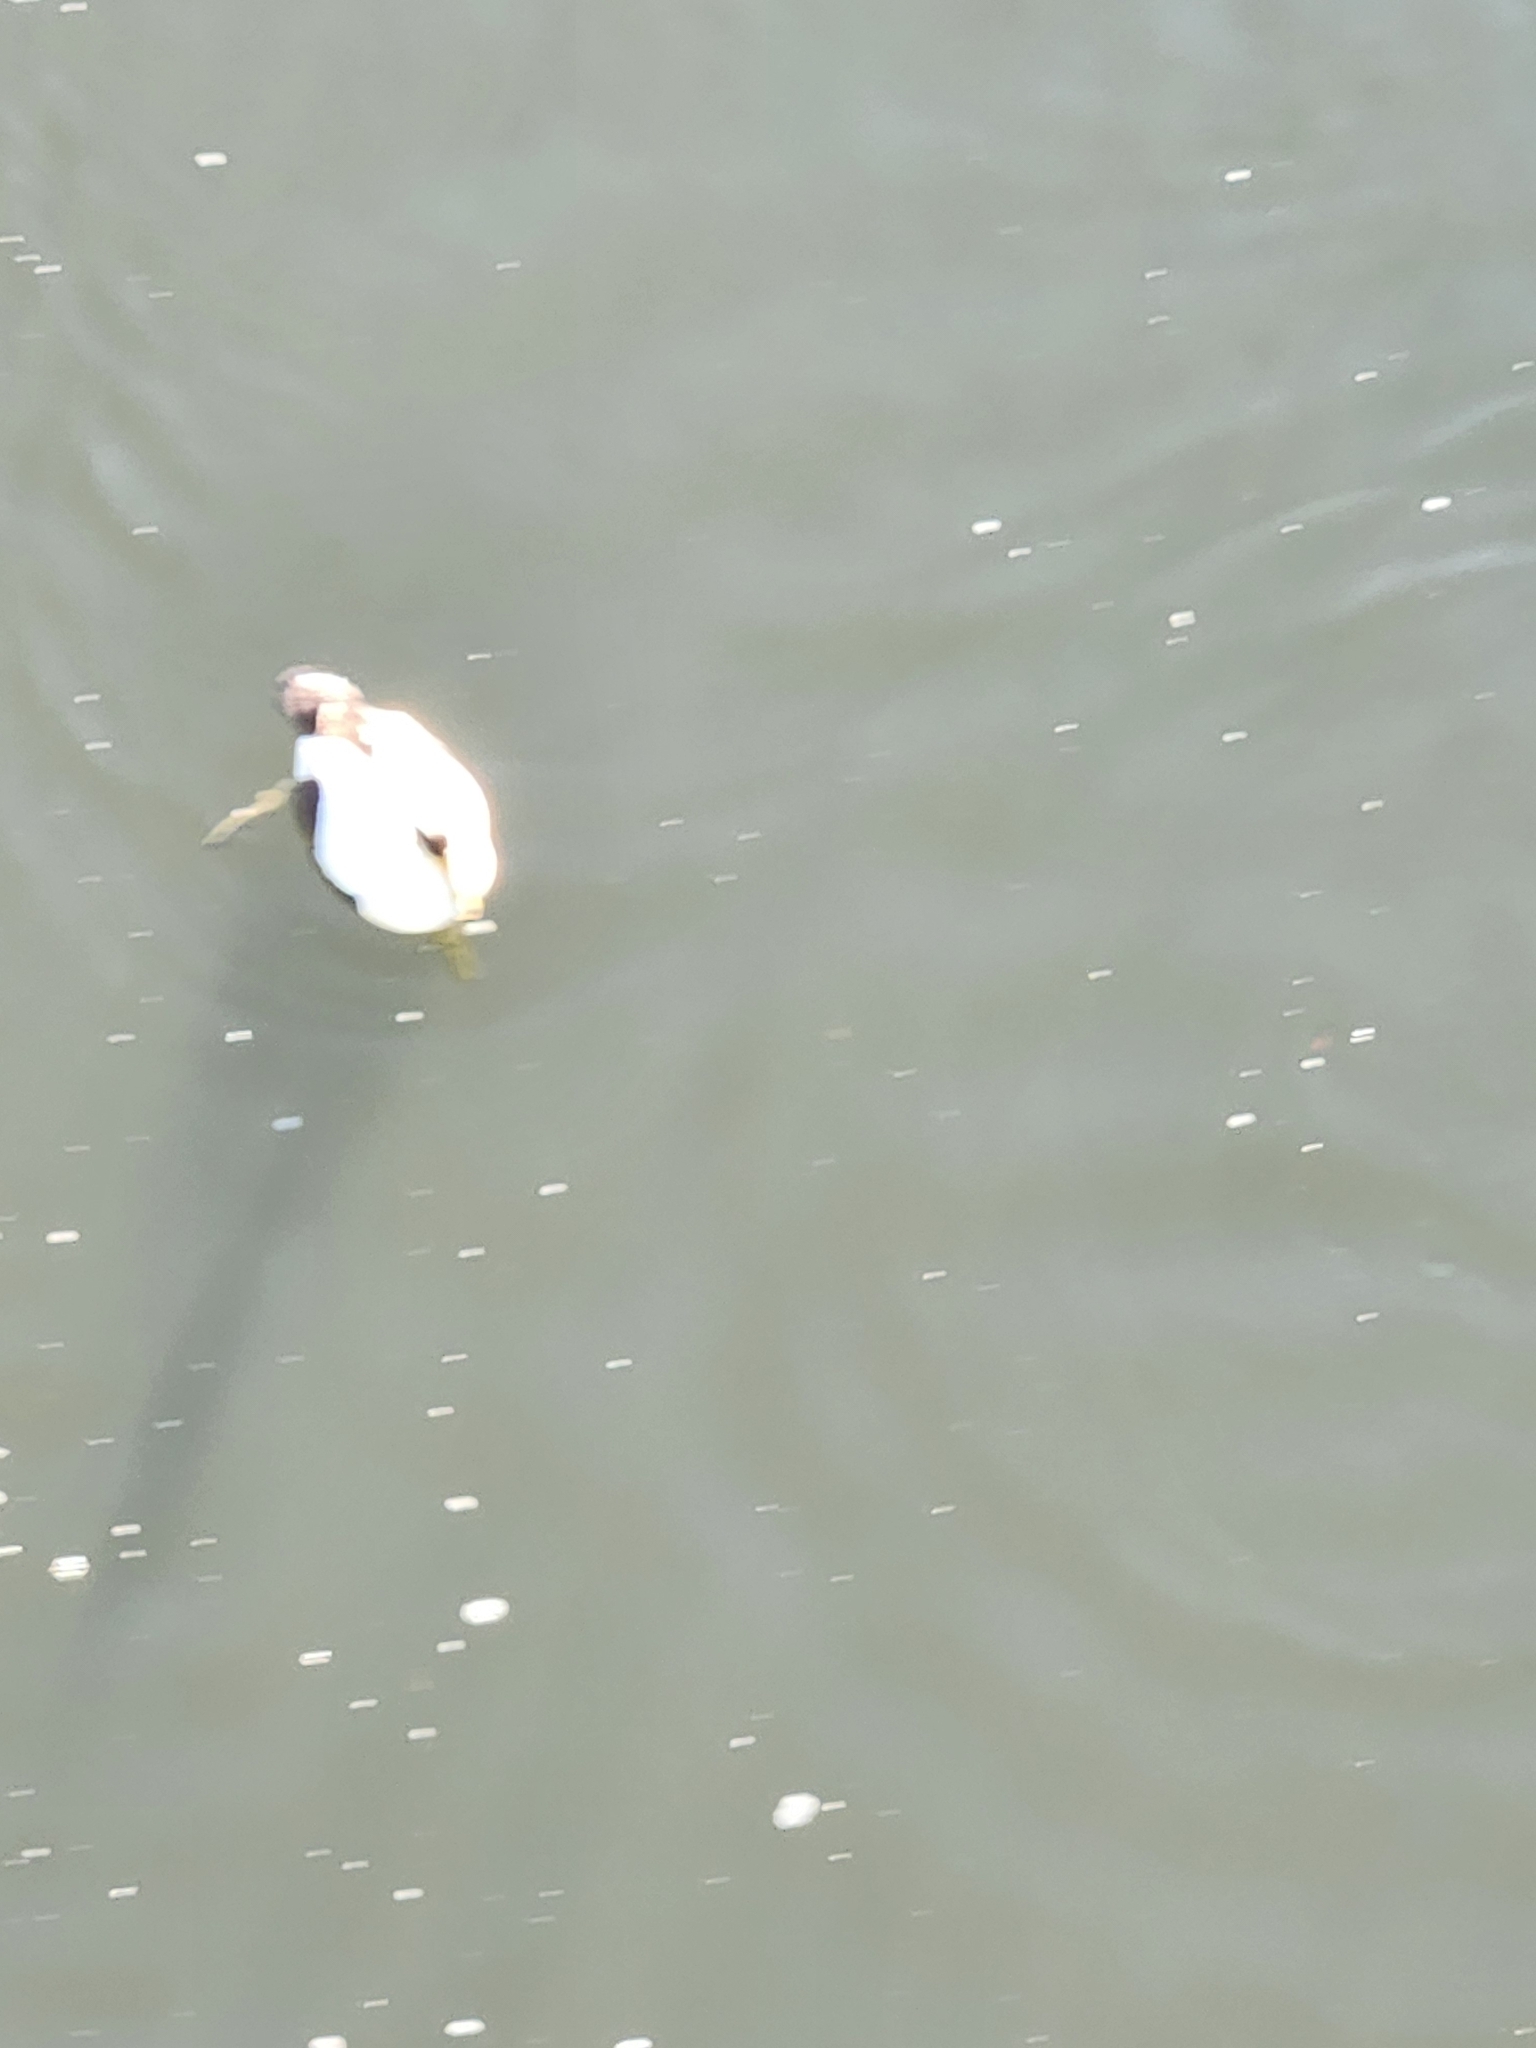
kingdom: Animalia
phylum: Chordata
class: Aves
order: Anseriformes
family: Anatidae
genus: Somateria
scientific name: Somateria mollissima
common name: Common eider
